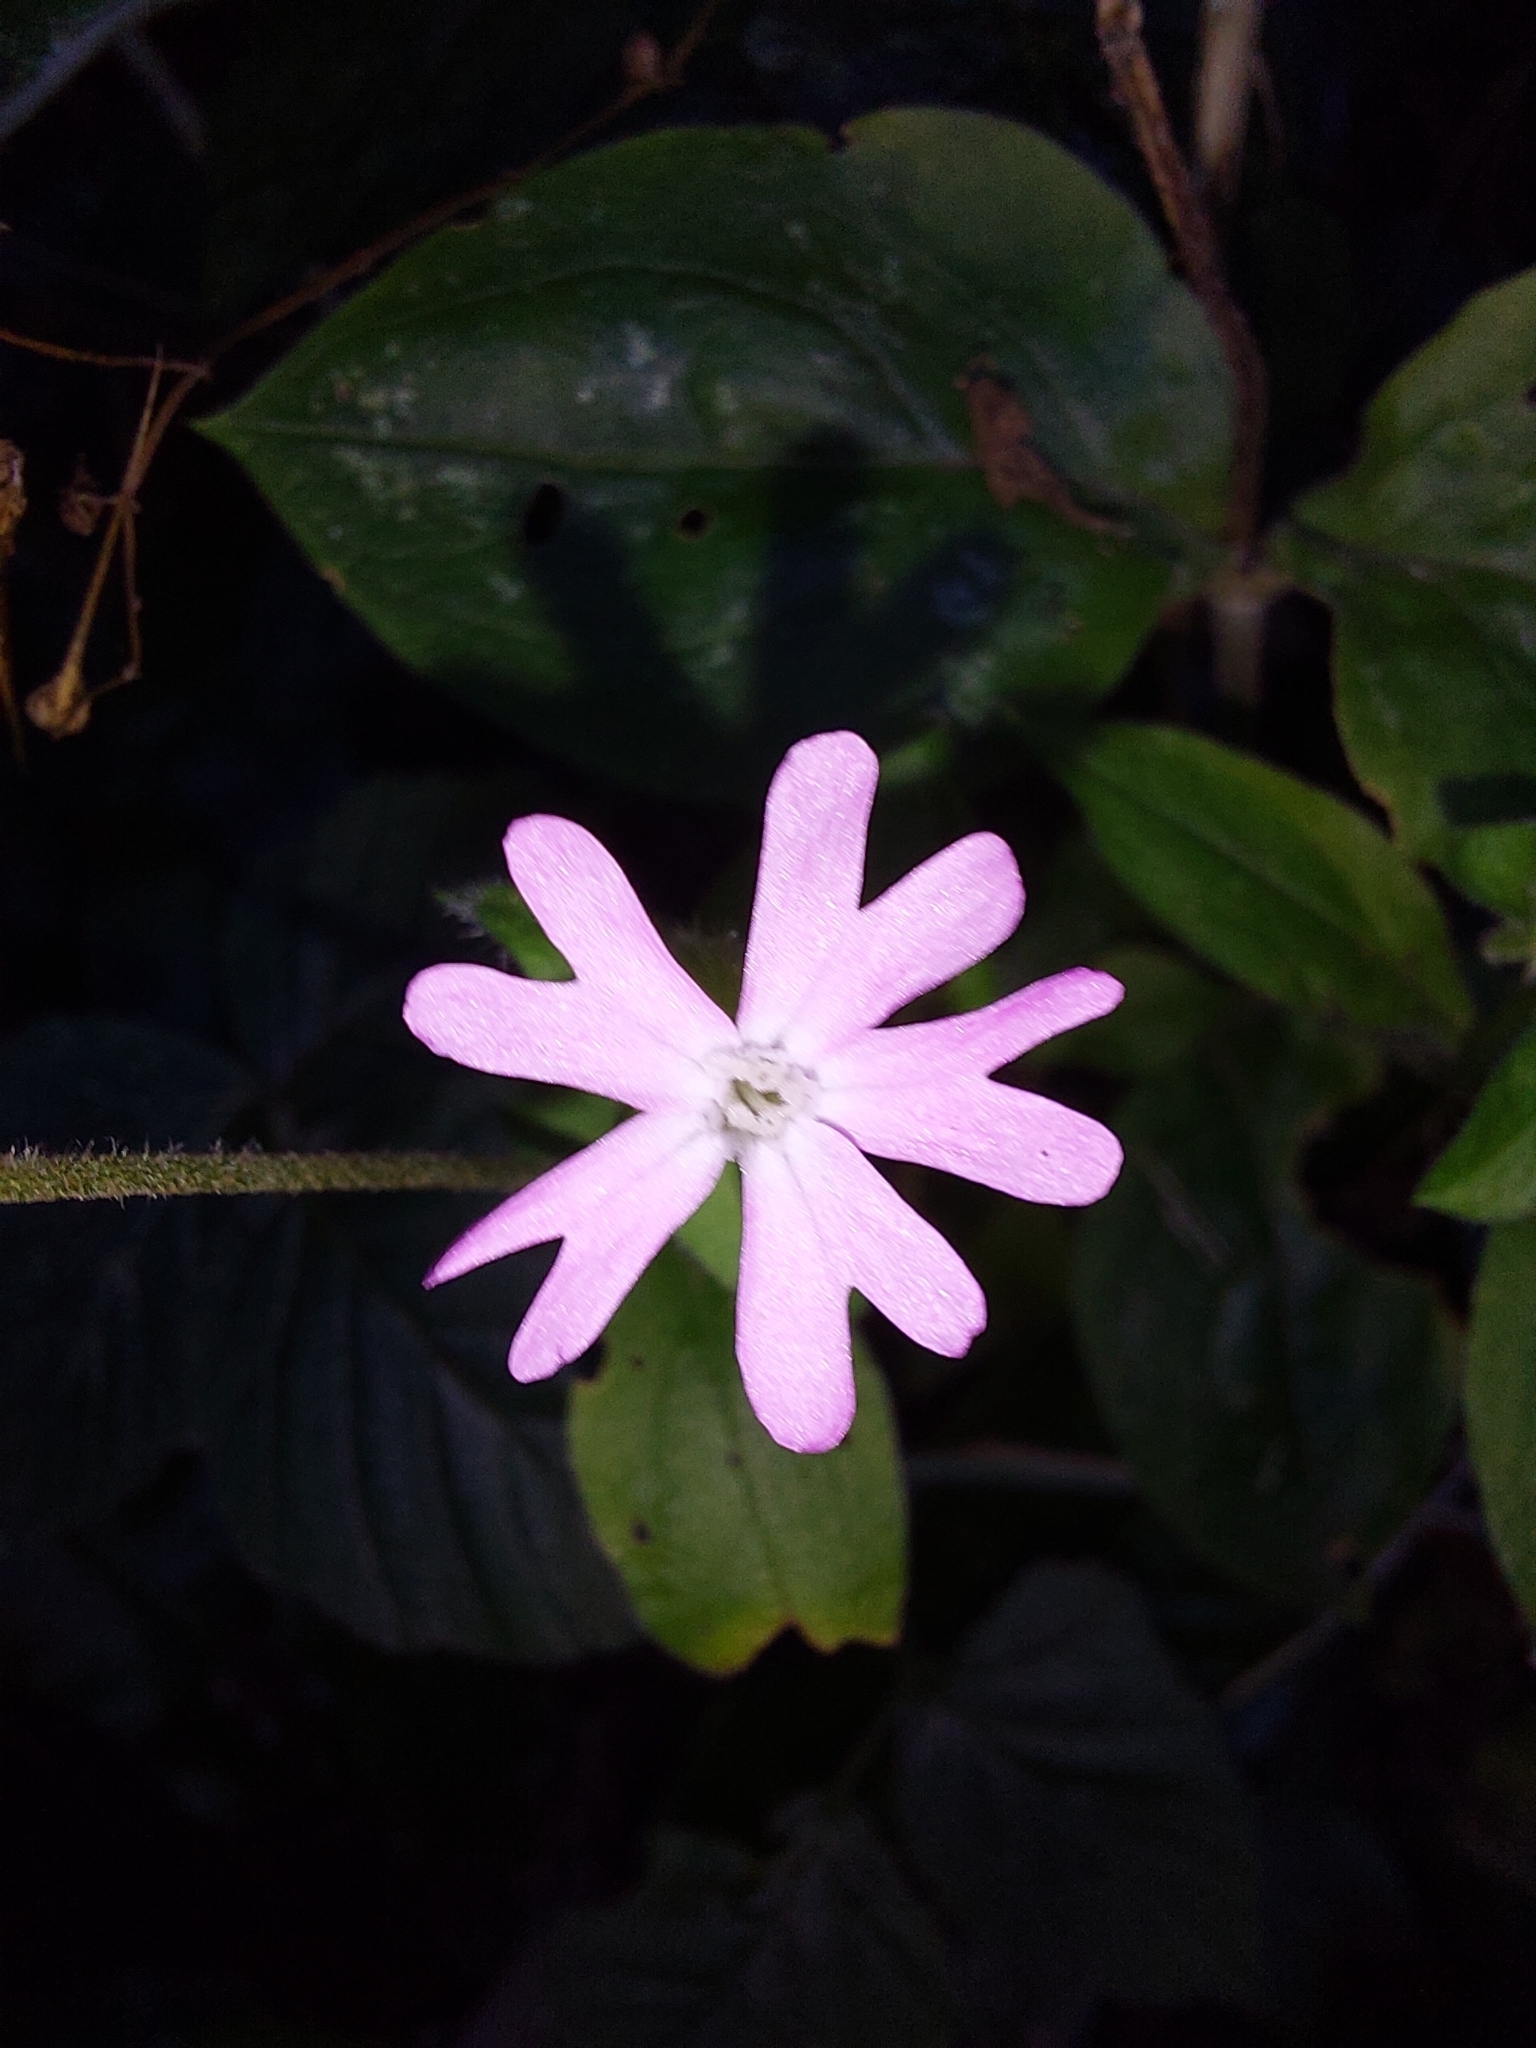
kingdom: Plantae
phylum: Tracheophyta
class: Magnoliopsida
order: Caryophyllales
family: Caryophyllaceae
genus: Silene
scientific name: Silene dioica
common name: Red campion
